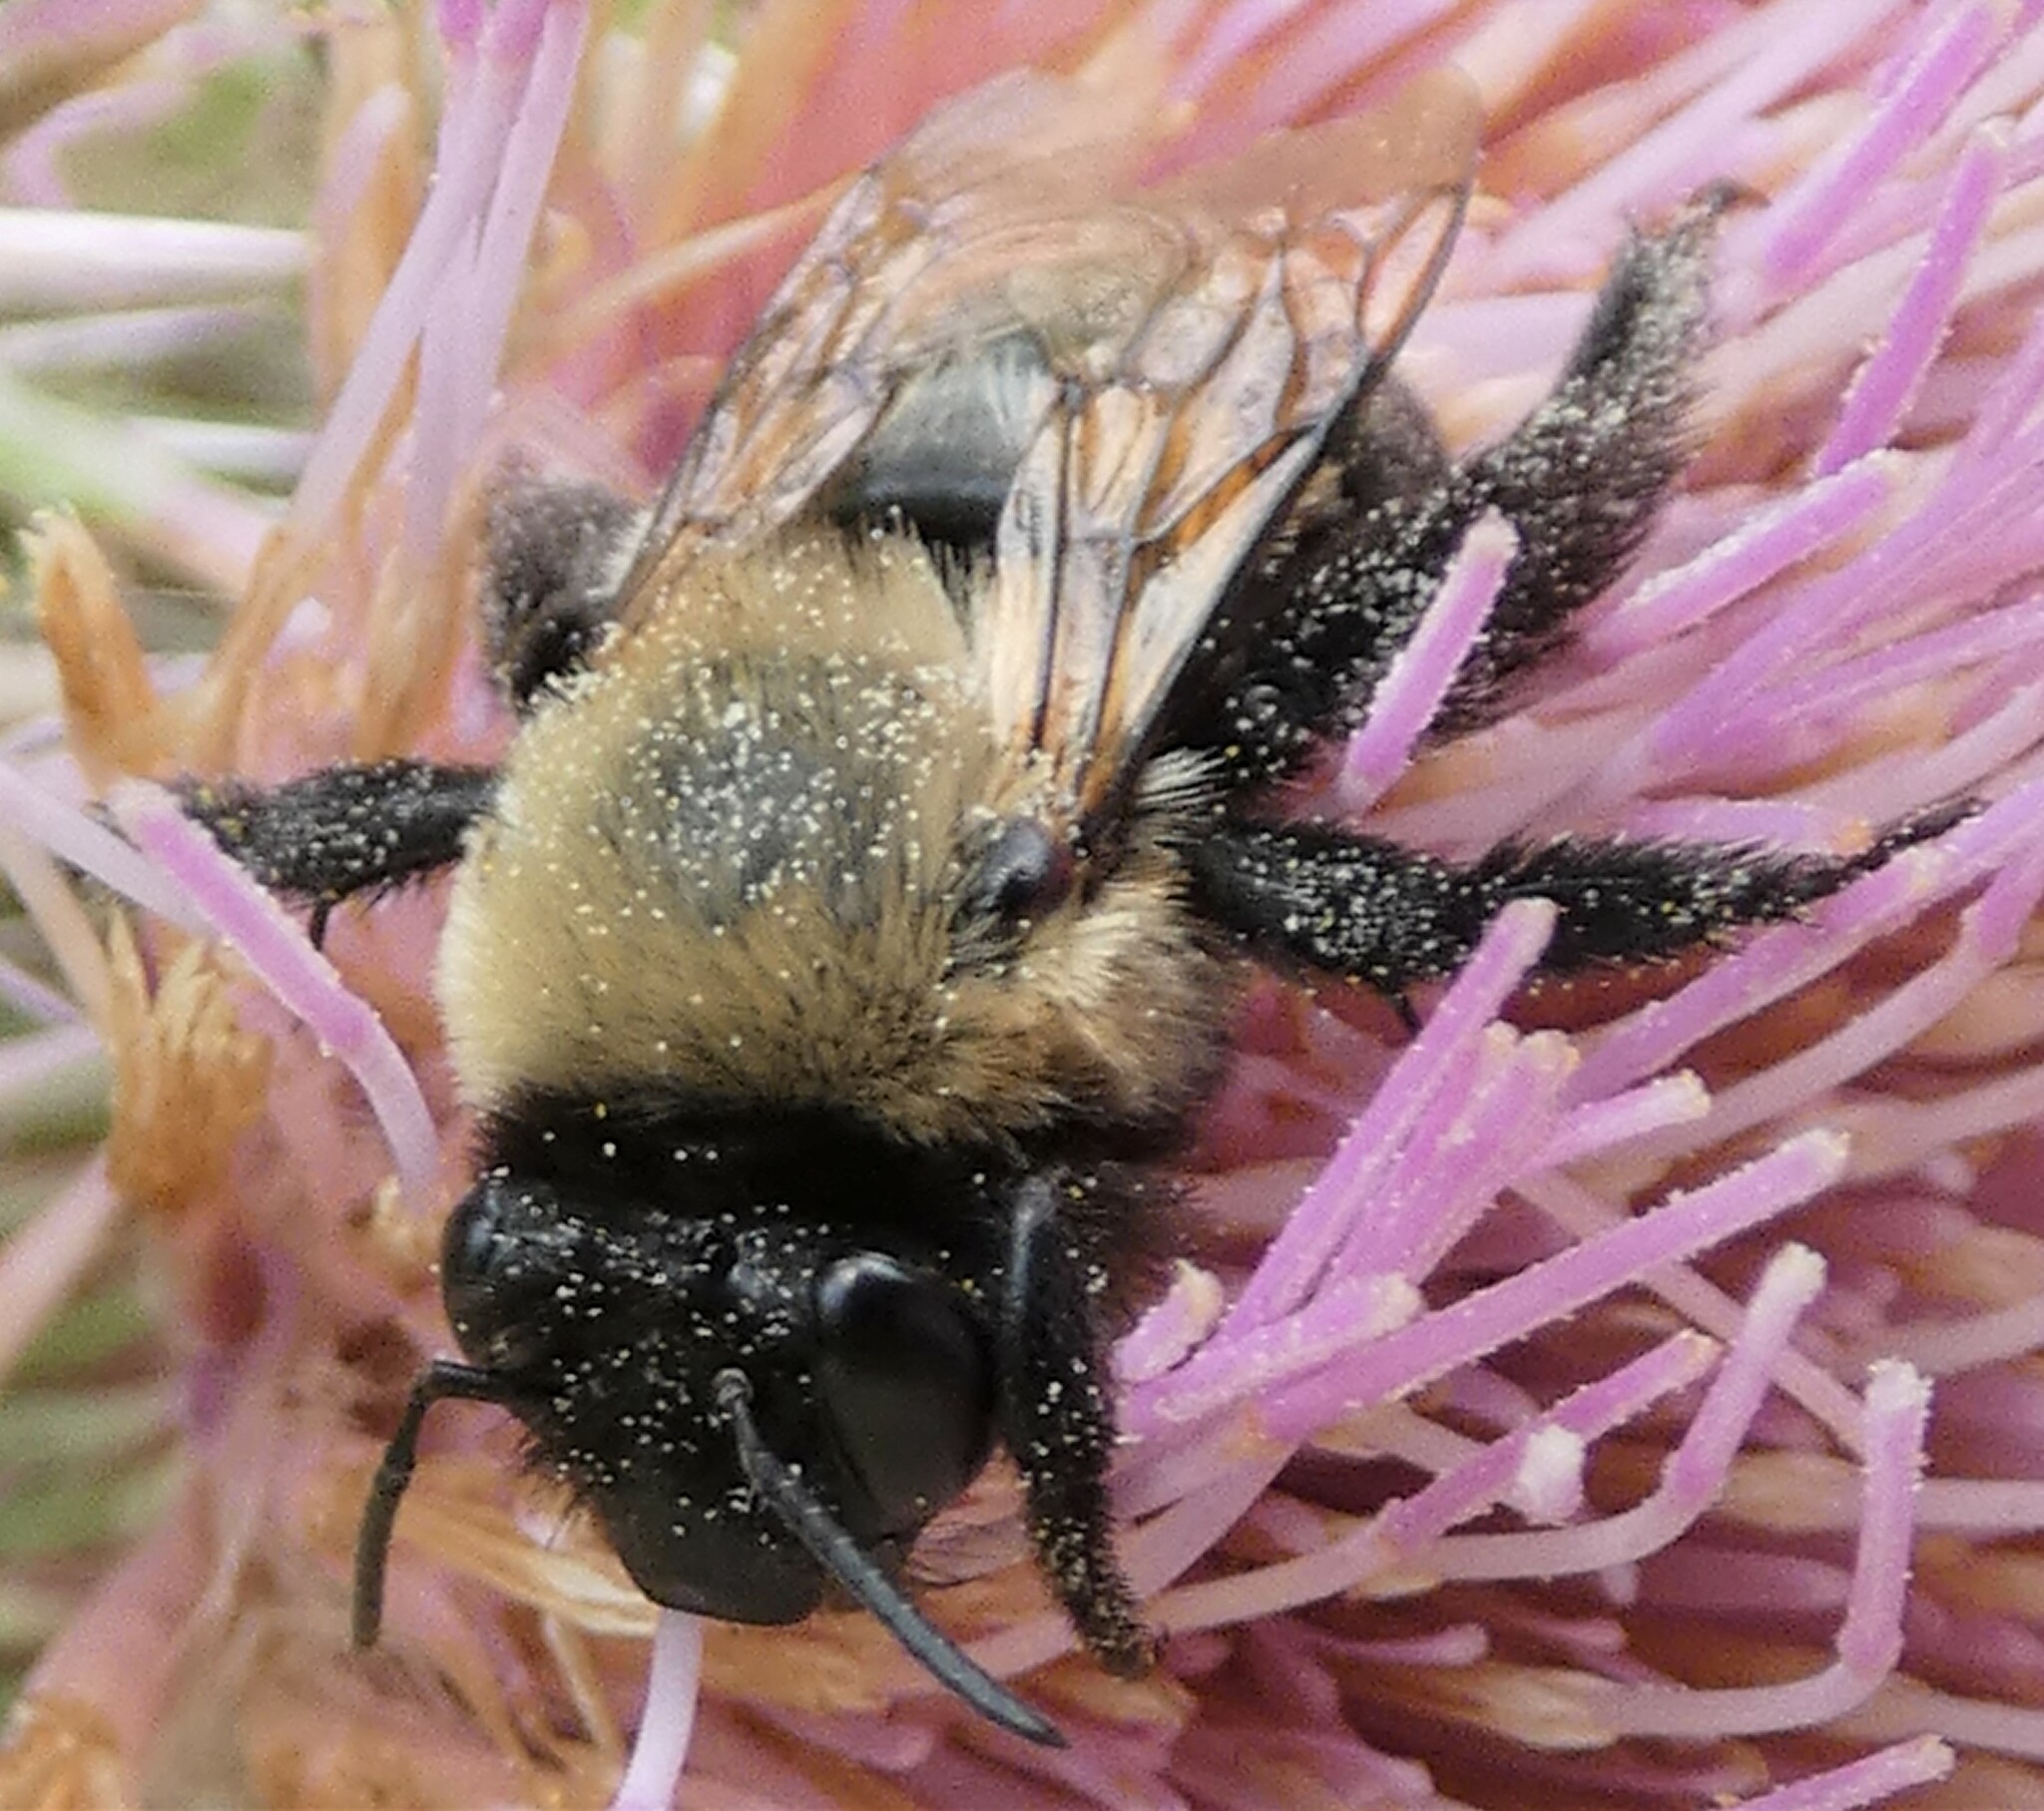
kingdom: Animalia
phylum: Arthropoda
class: Insecta
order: Hymenoptera
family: Apidae
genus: Habropoda
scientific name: Habropoda laboriosa
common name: Southeastern blueberry bee
